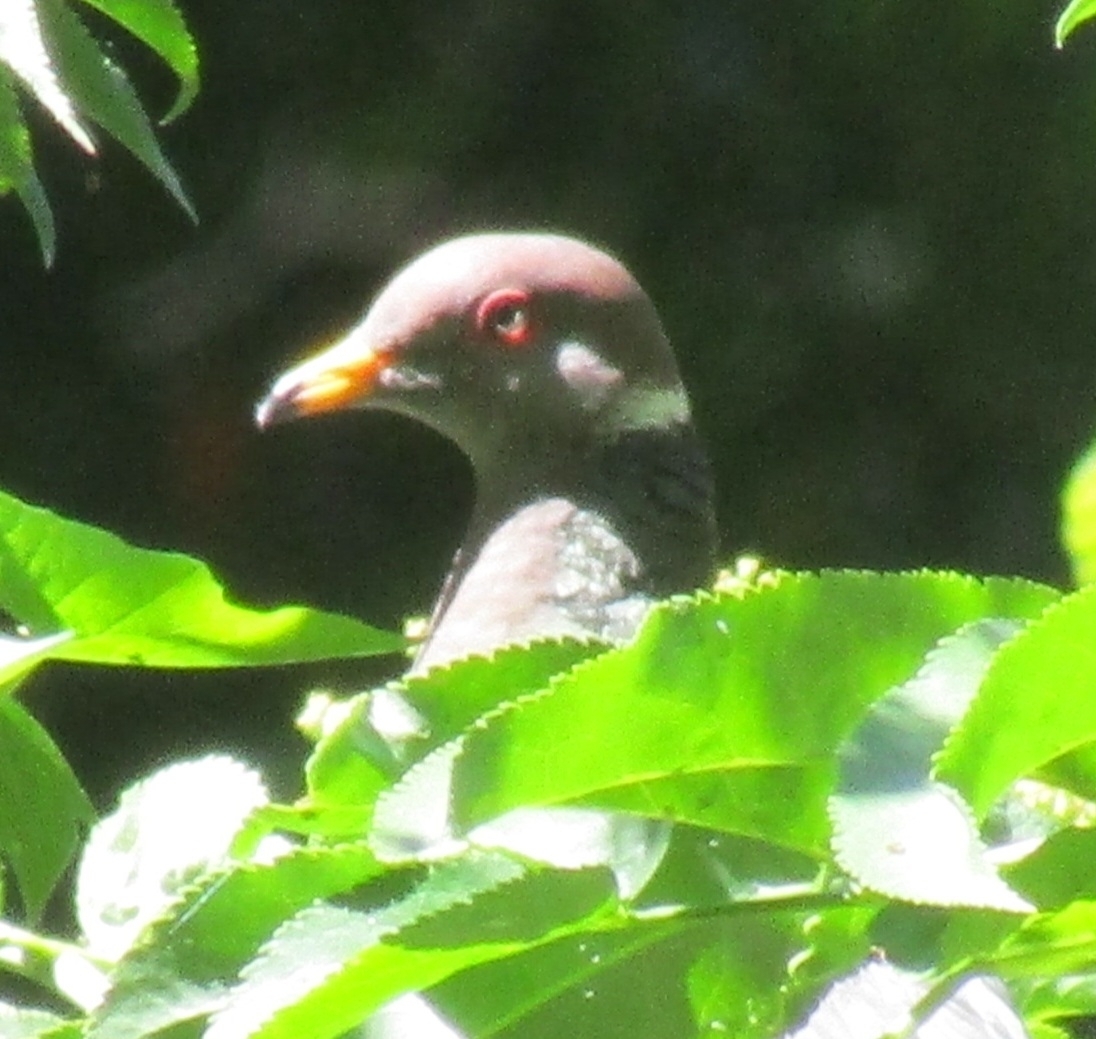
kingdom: Animalia
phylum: Chordata
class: Aves
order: Columbiformes
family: Columbidae
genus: Patagioenas
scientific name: Patagioenas fasciata
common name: Band-tailed pigeon
